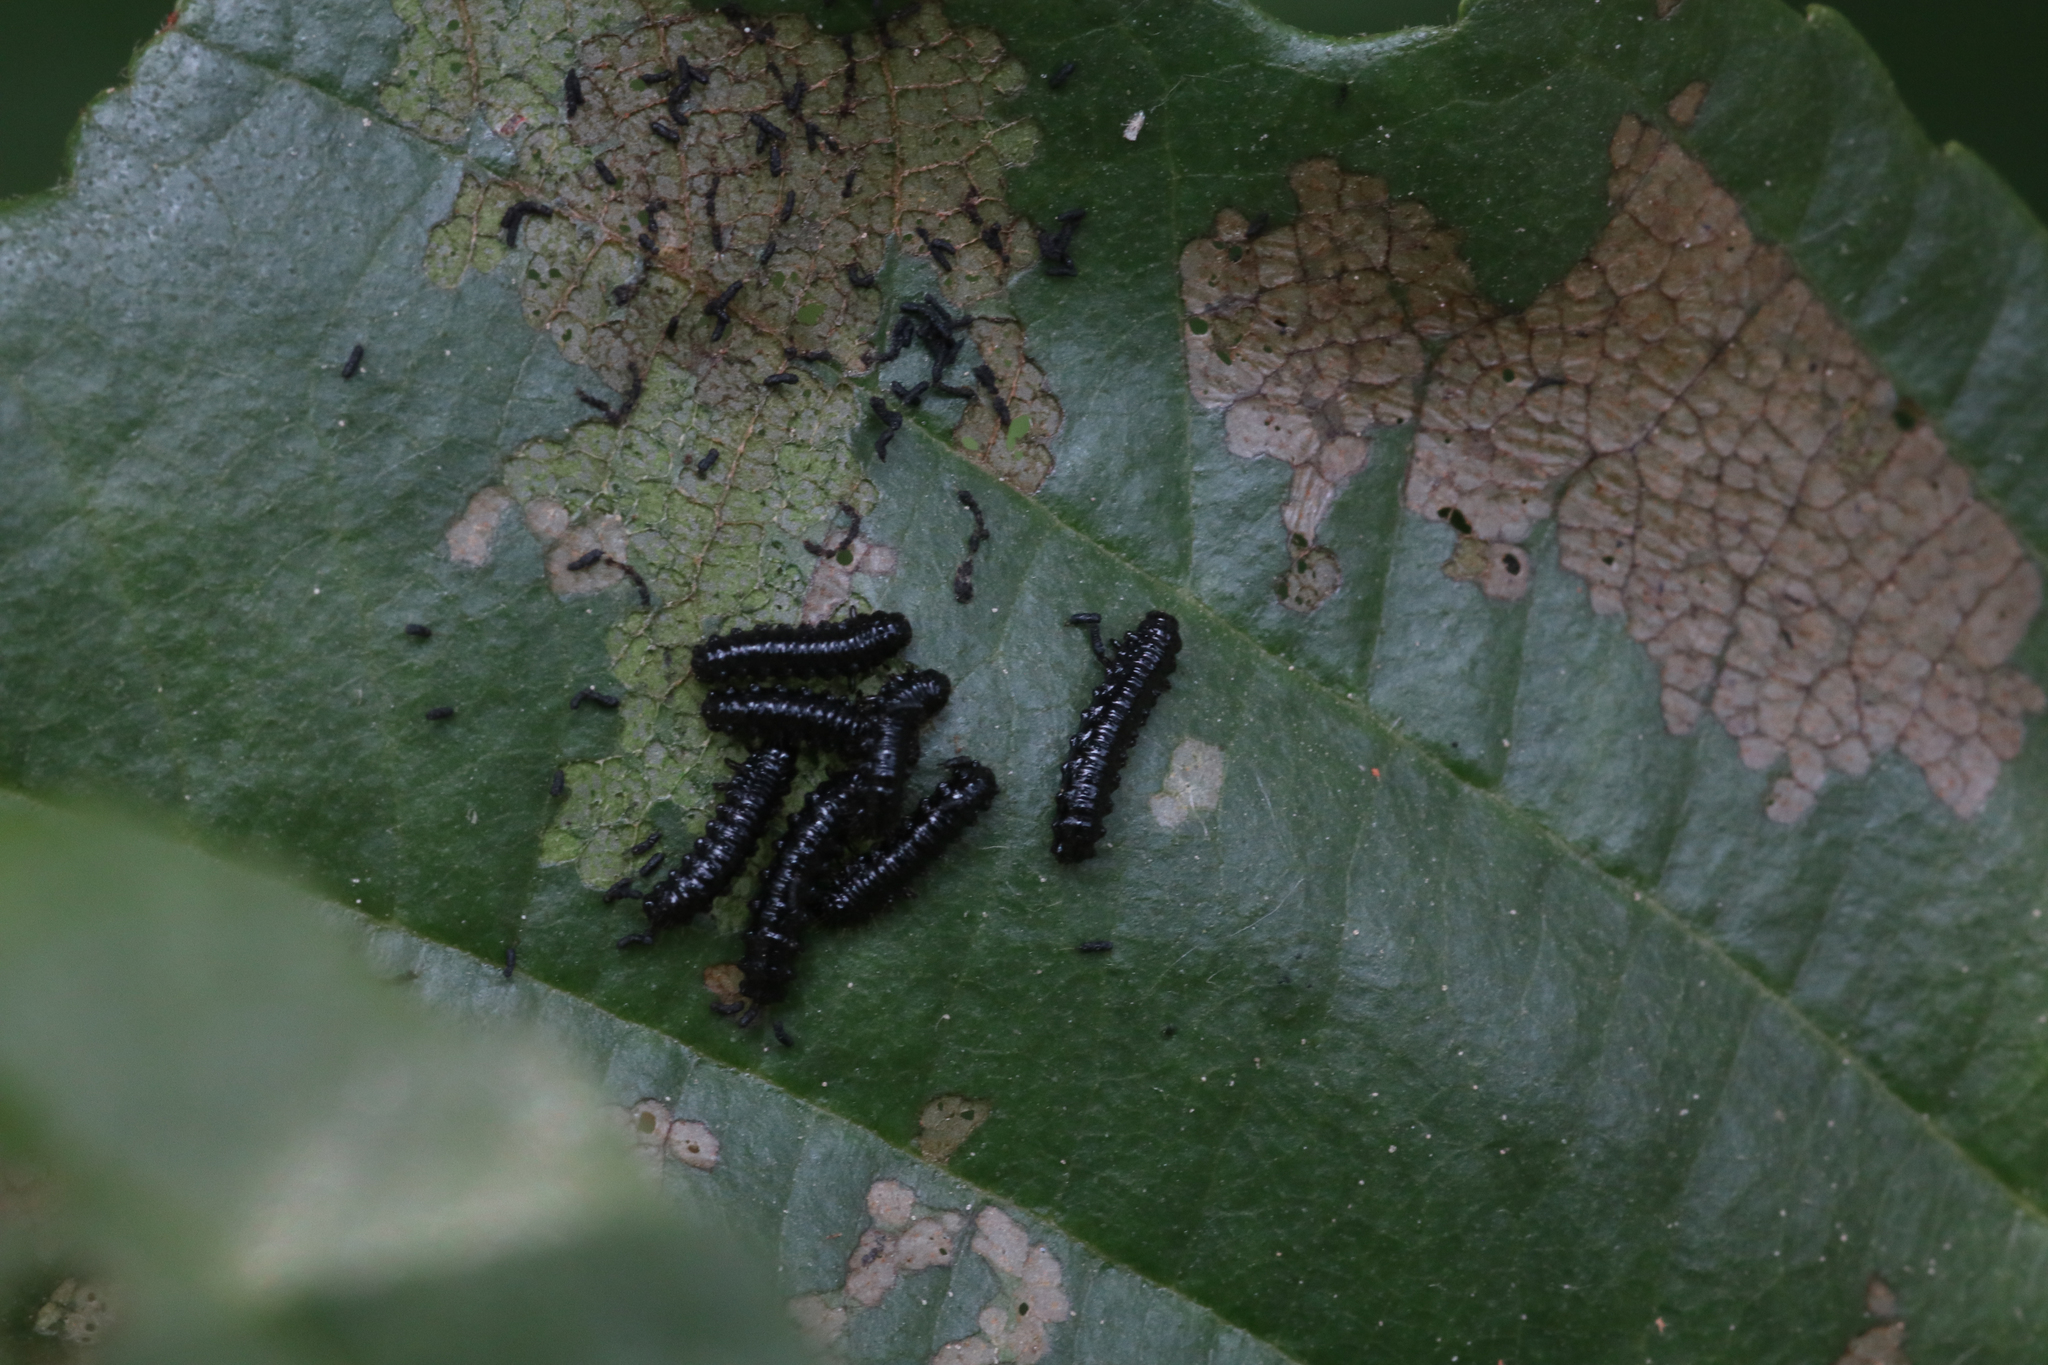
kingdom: Animalia
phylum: Arthropoda
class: Insecta
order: Coleoptera
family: Chrysomelidae
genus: Agelastica
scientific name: Agelastica alni
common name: Alder leaf beetle
